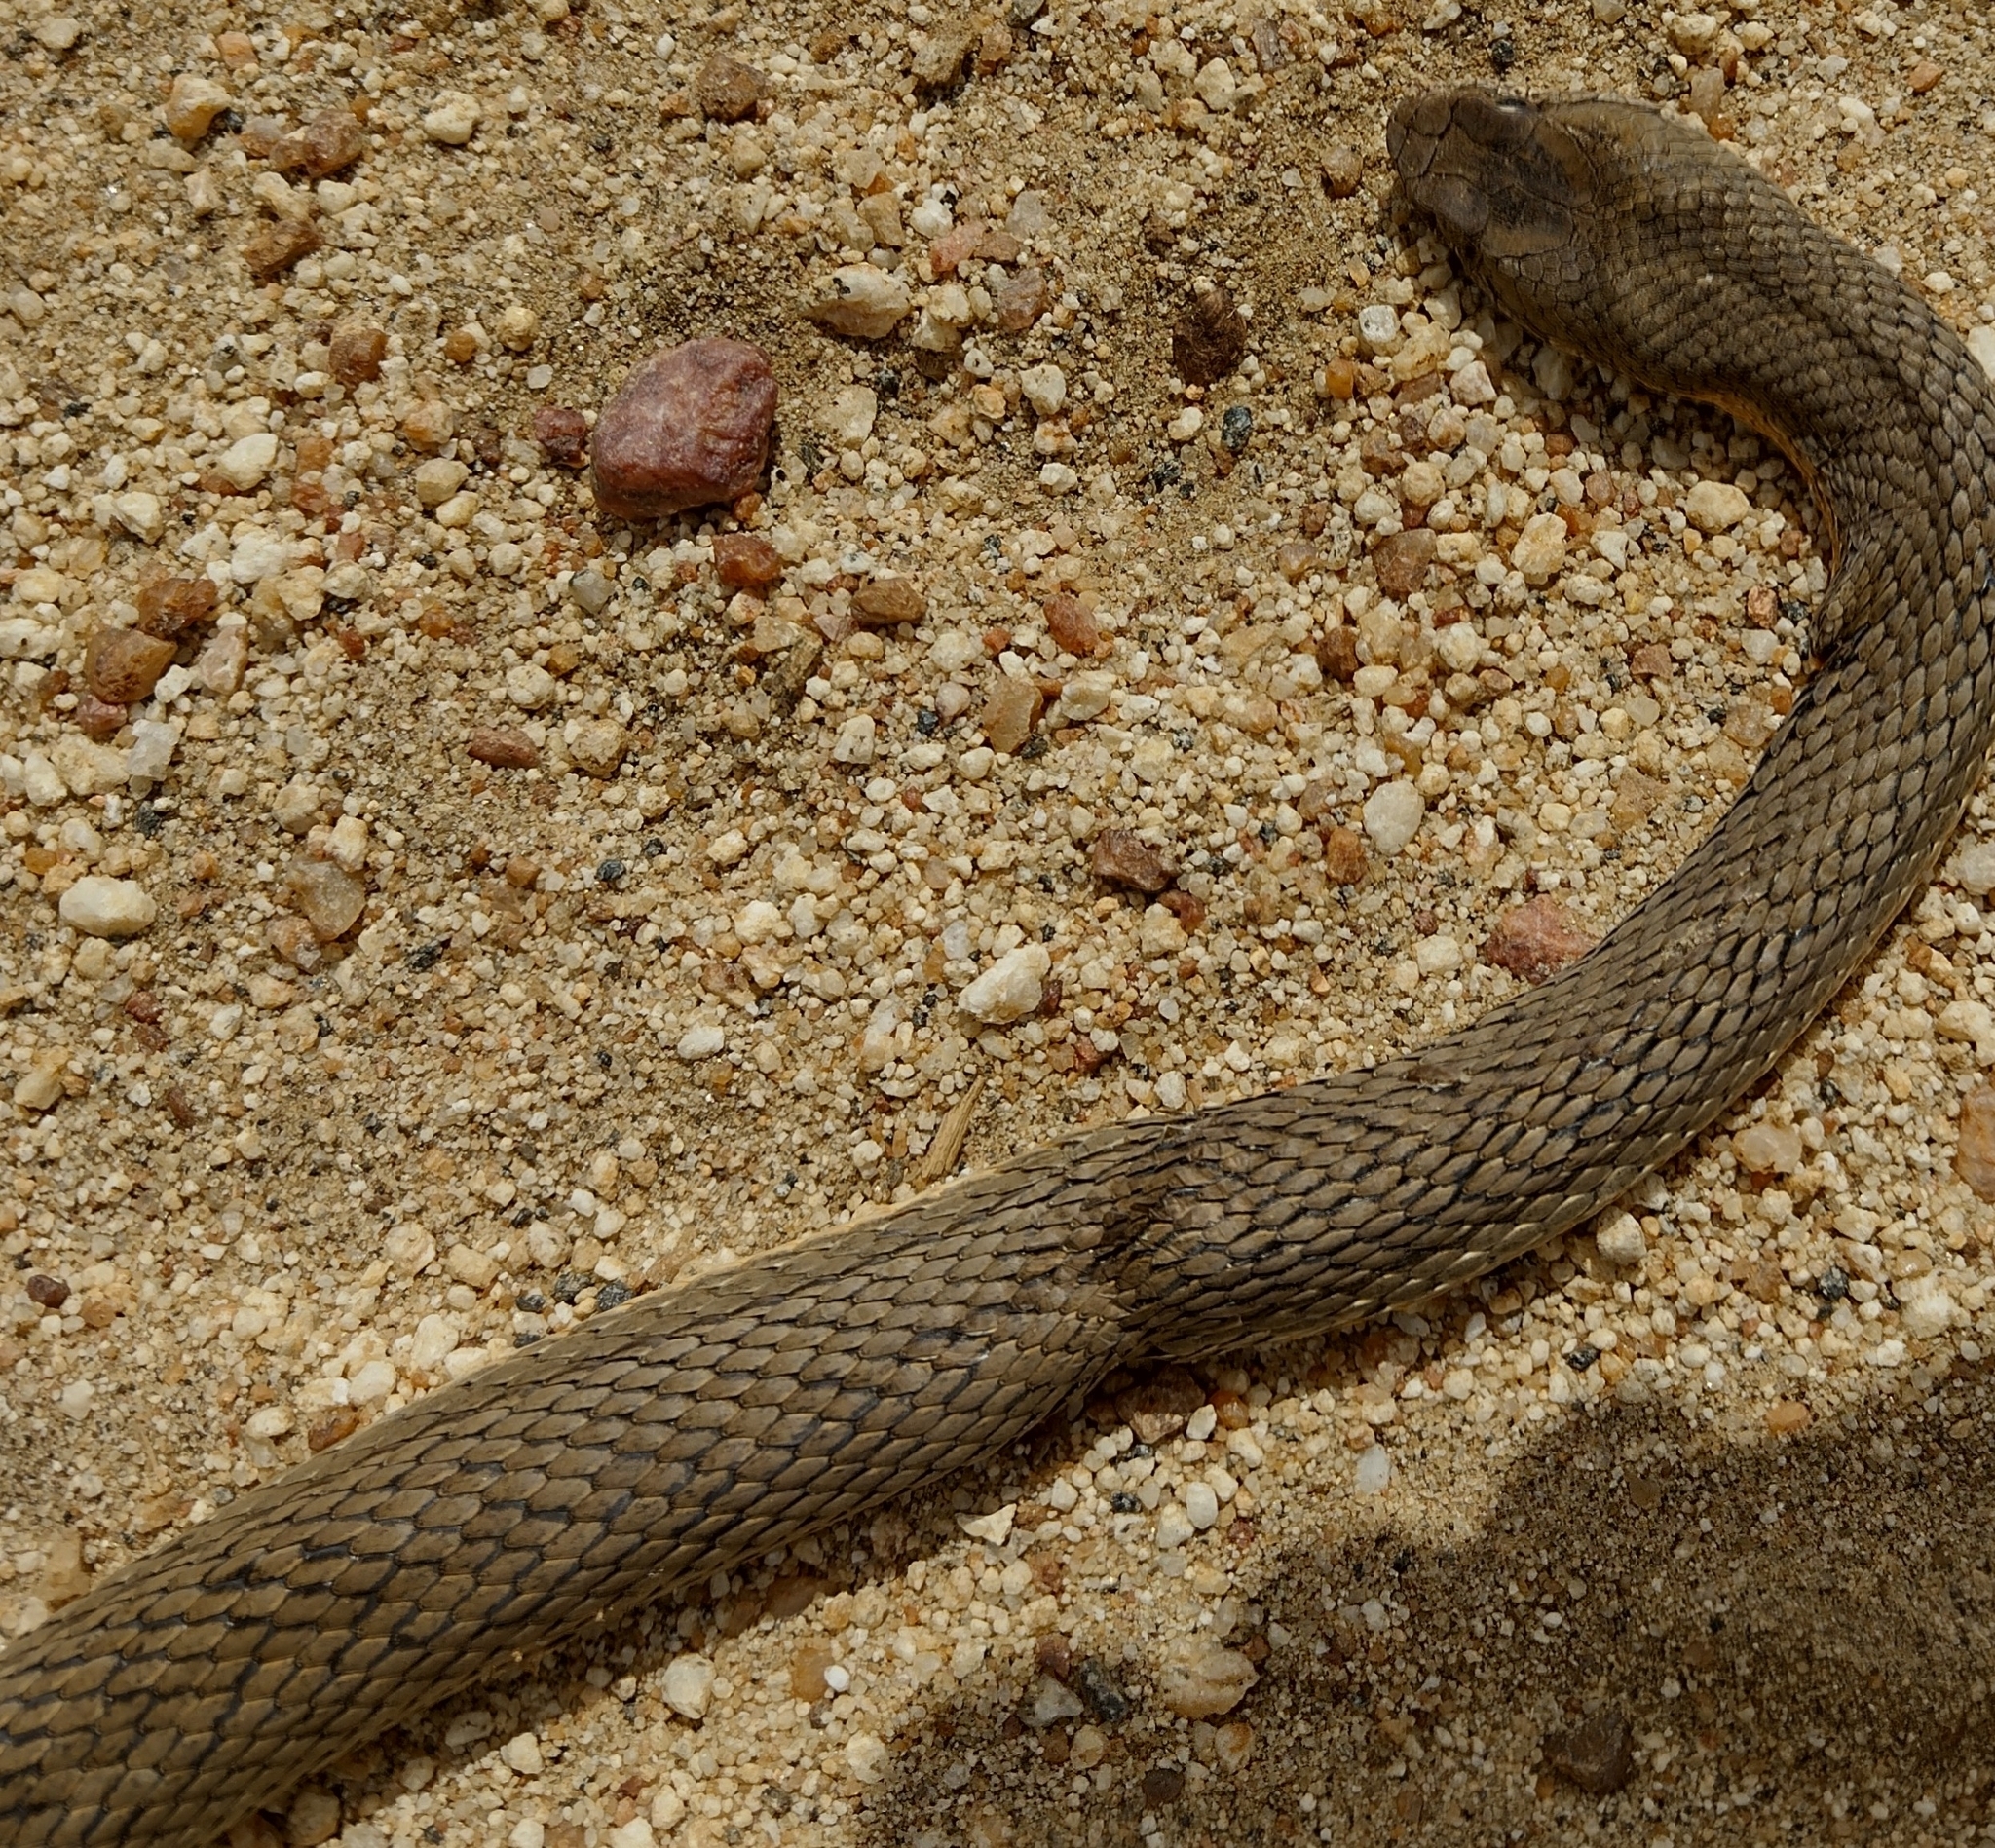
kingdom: Animalia
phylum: Chordata
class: Squamata
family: Colubridae
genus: Philodryas
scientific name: Philodryas nattereri
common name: Paraguay green racer
